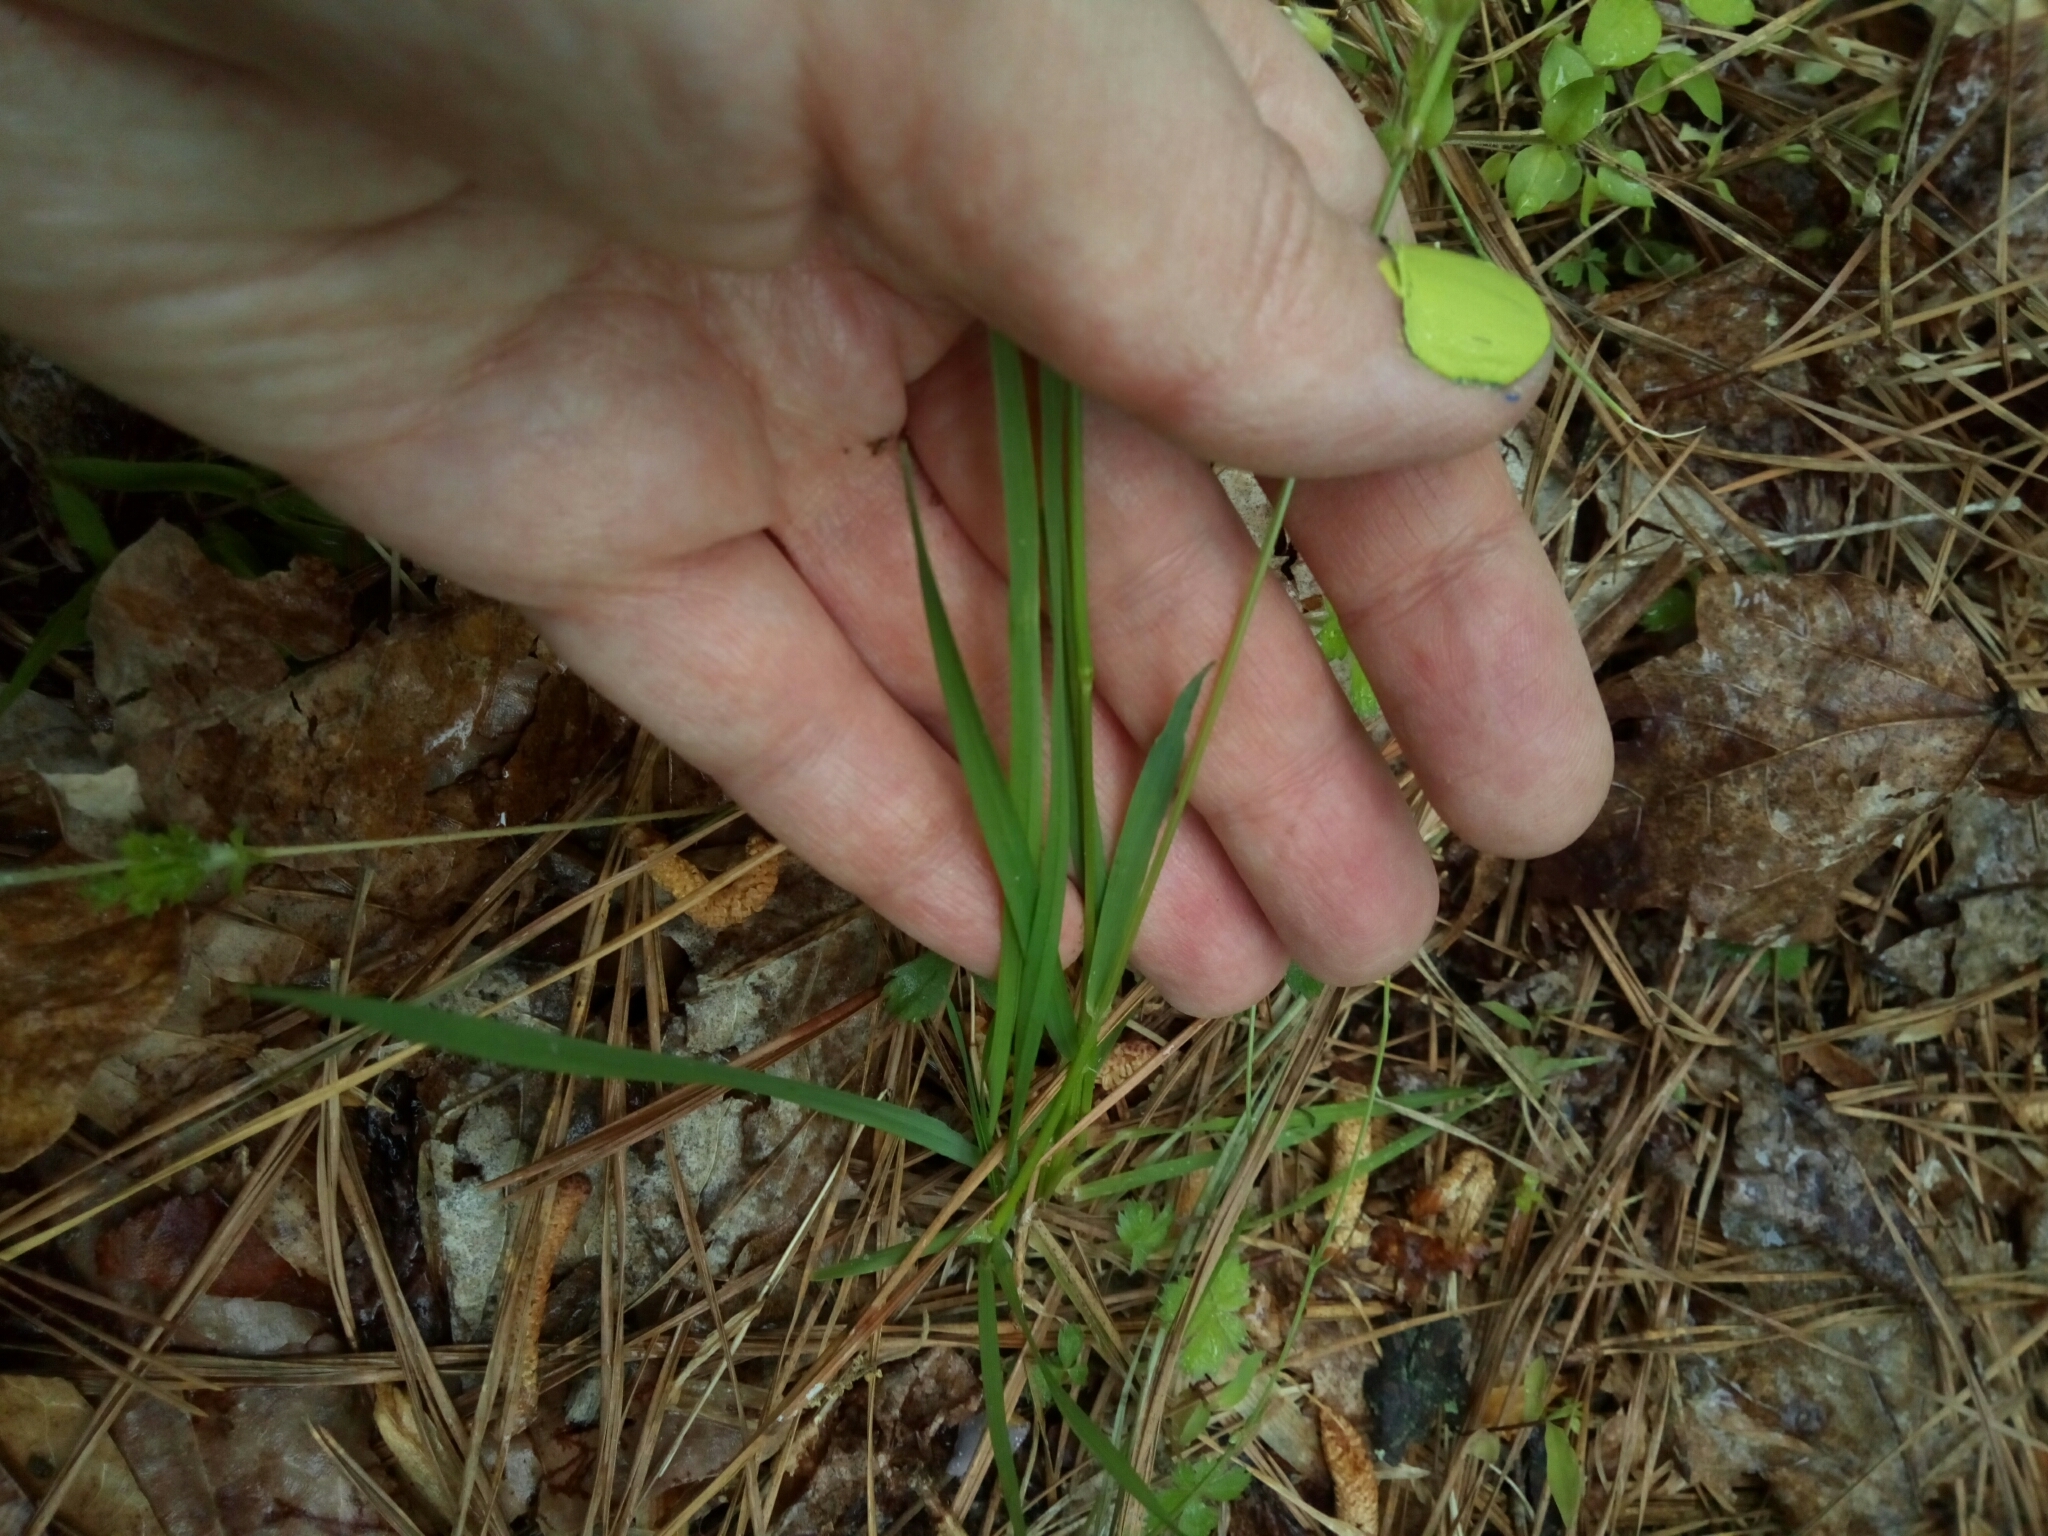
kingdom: Plantae
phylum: Tracheophyta
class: Liliopsida
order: Poales
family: Poaceae
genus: Anthoxanthum
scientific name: Anthoxanthum odoratum
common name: Sweet vernalgrass
